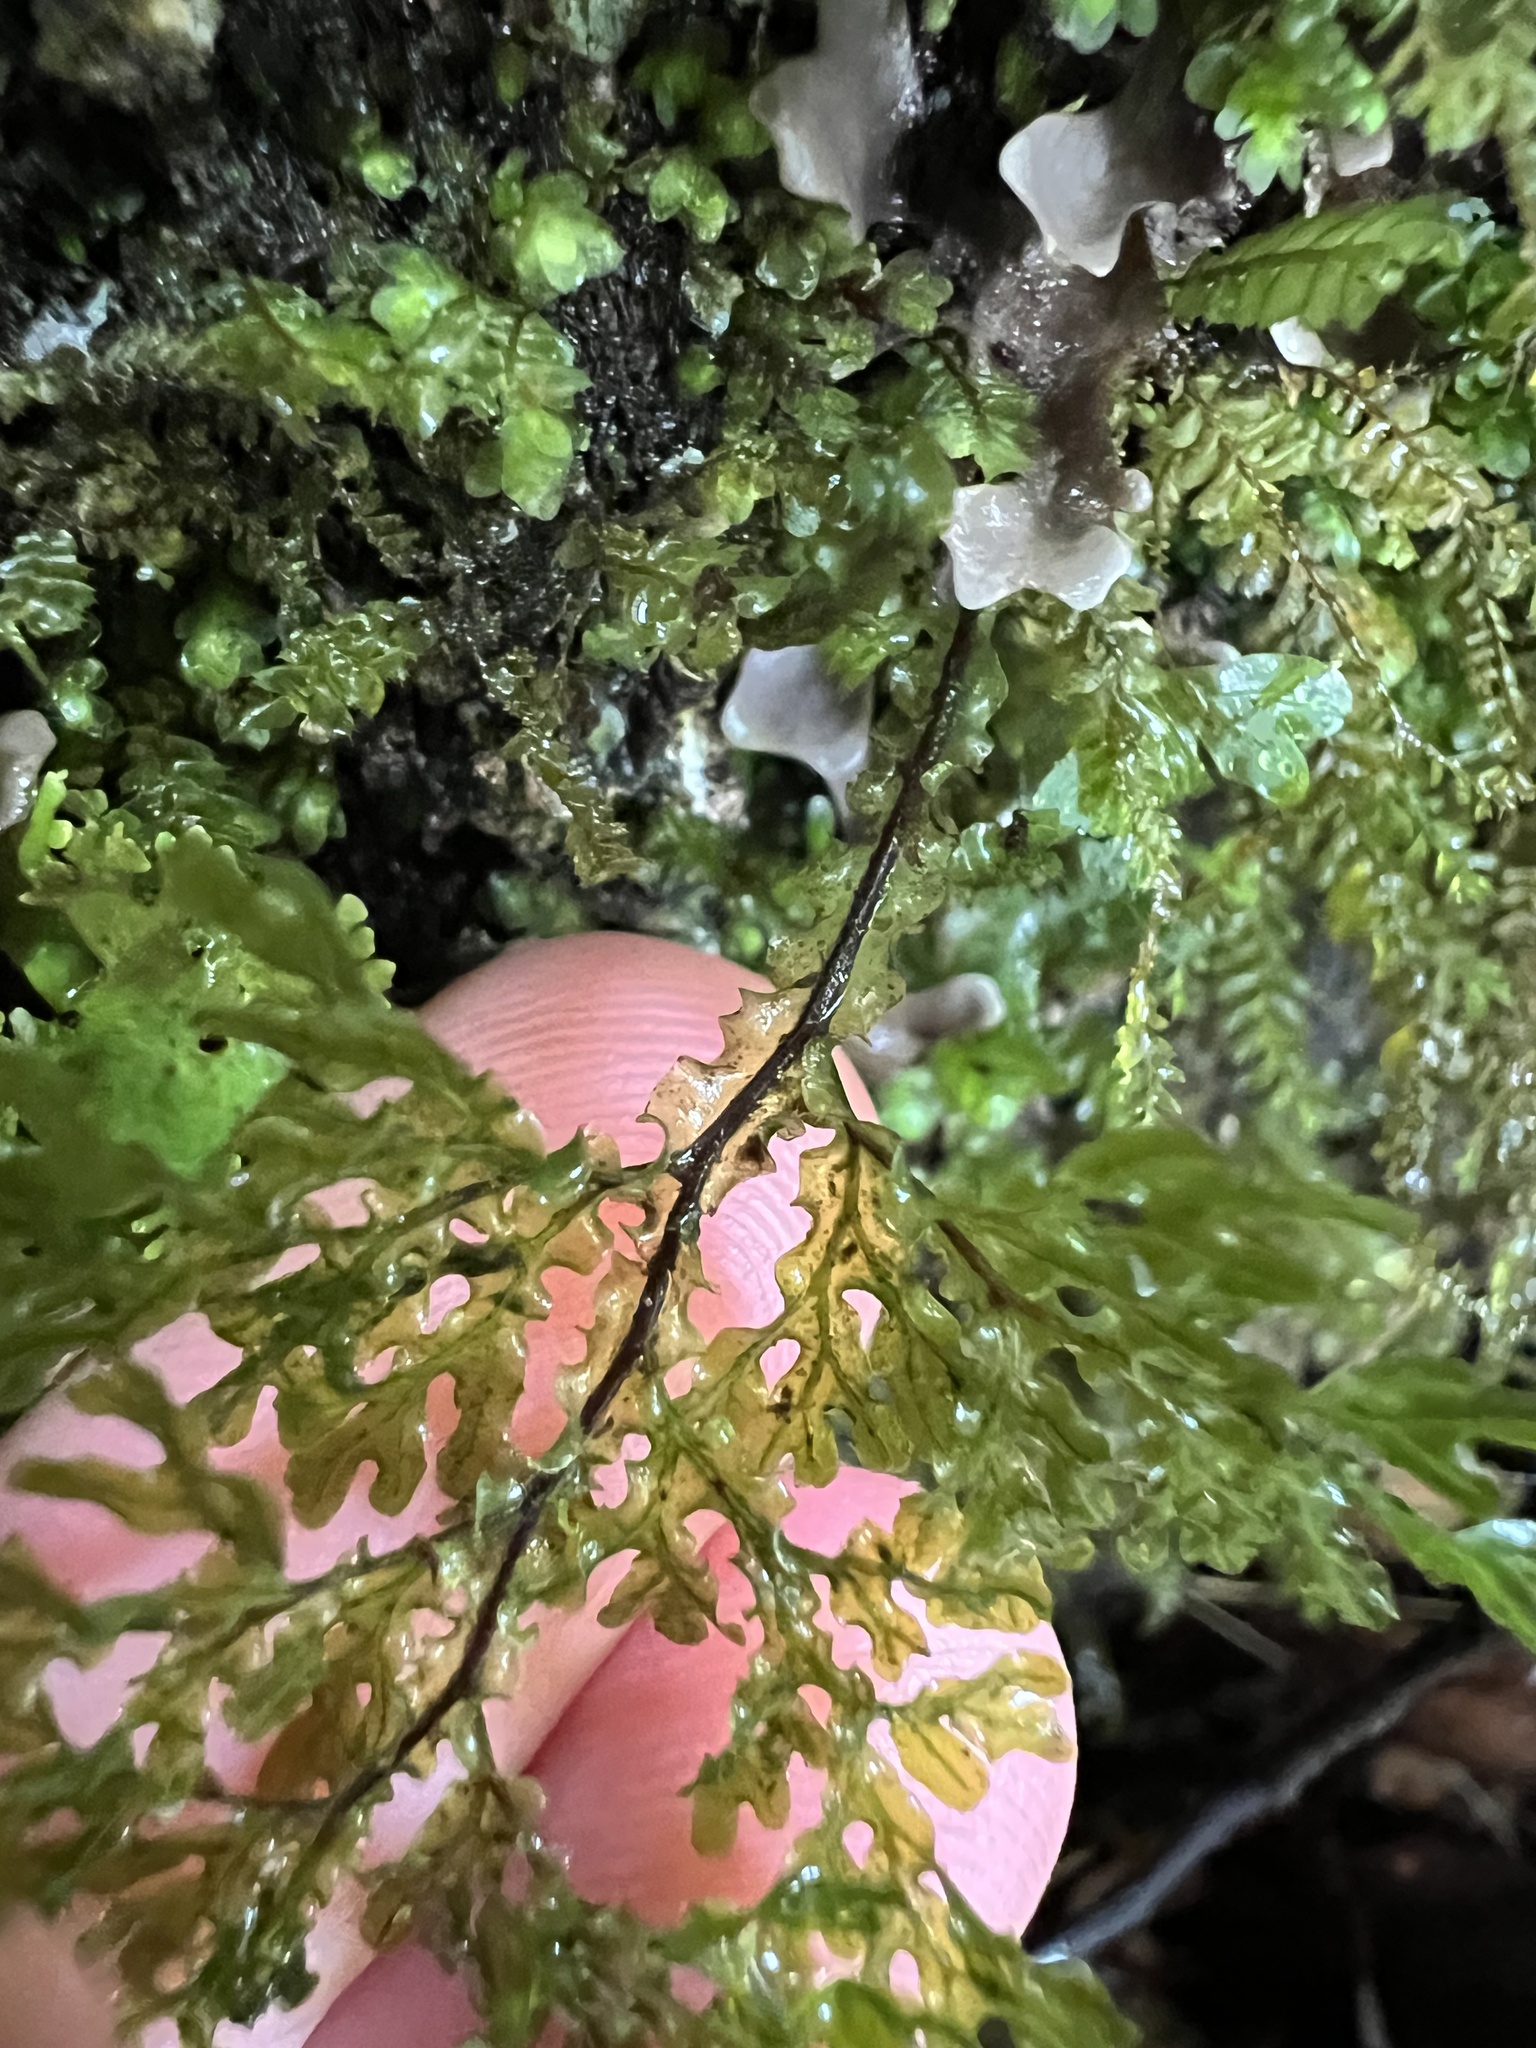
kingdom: Plantae
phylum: Tracheophyta
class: Polypodiopsida
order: Hymenophyllales
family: Hymenophyllaceae
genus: Hymenophyllum
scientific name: Hymenophyllum flexuosum
